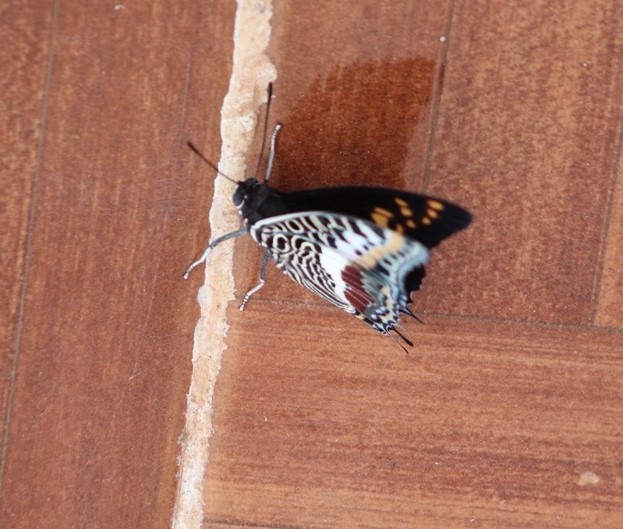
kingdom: Animalia
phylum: Arthropoda
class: Insecta
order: Lepidoptera
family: Nymphalidae
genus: Charaxes
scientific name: Charaxes castor
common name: Giant charaxes
